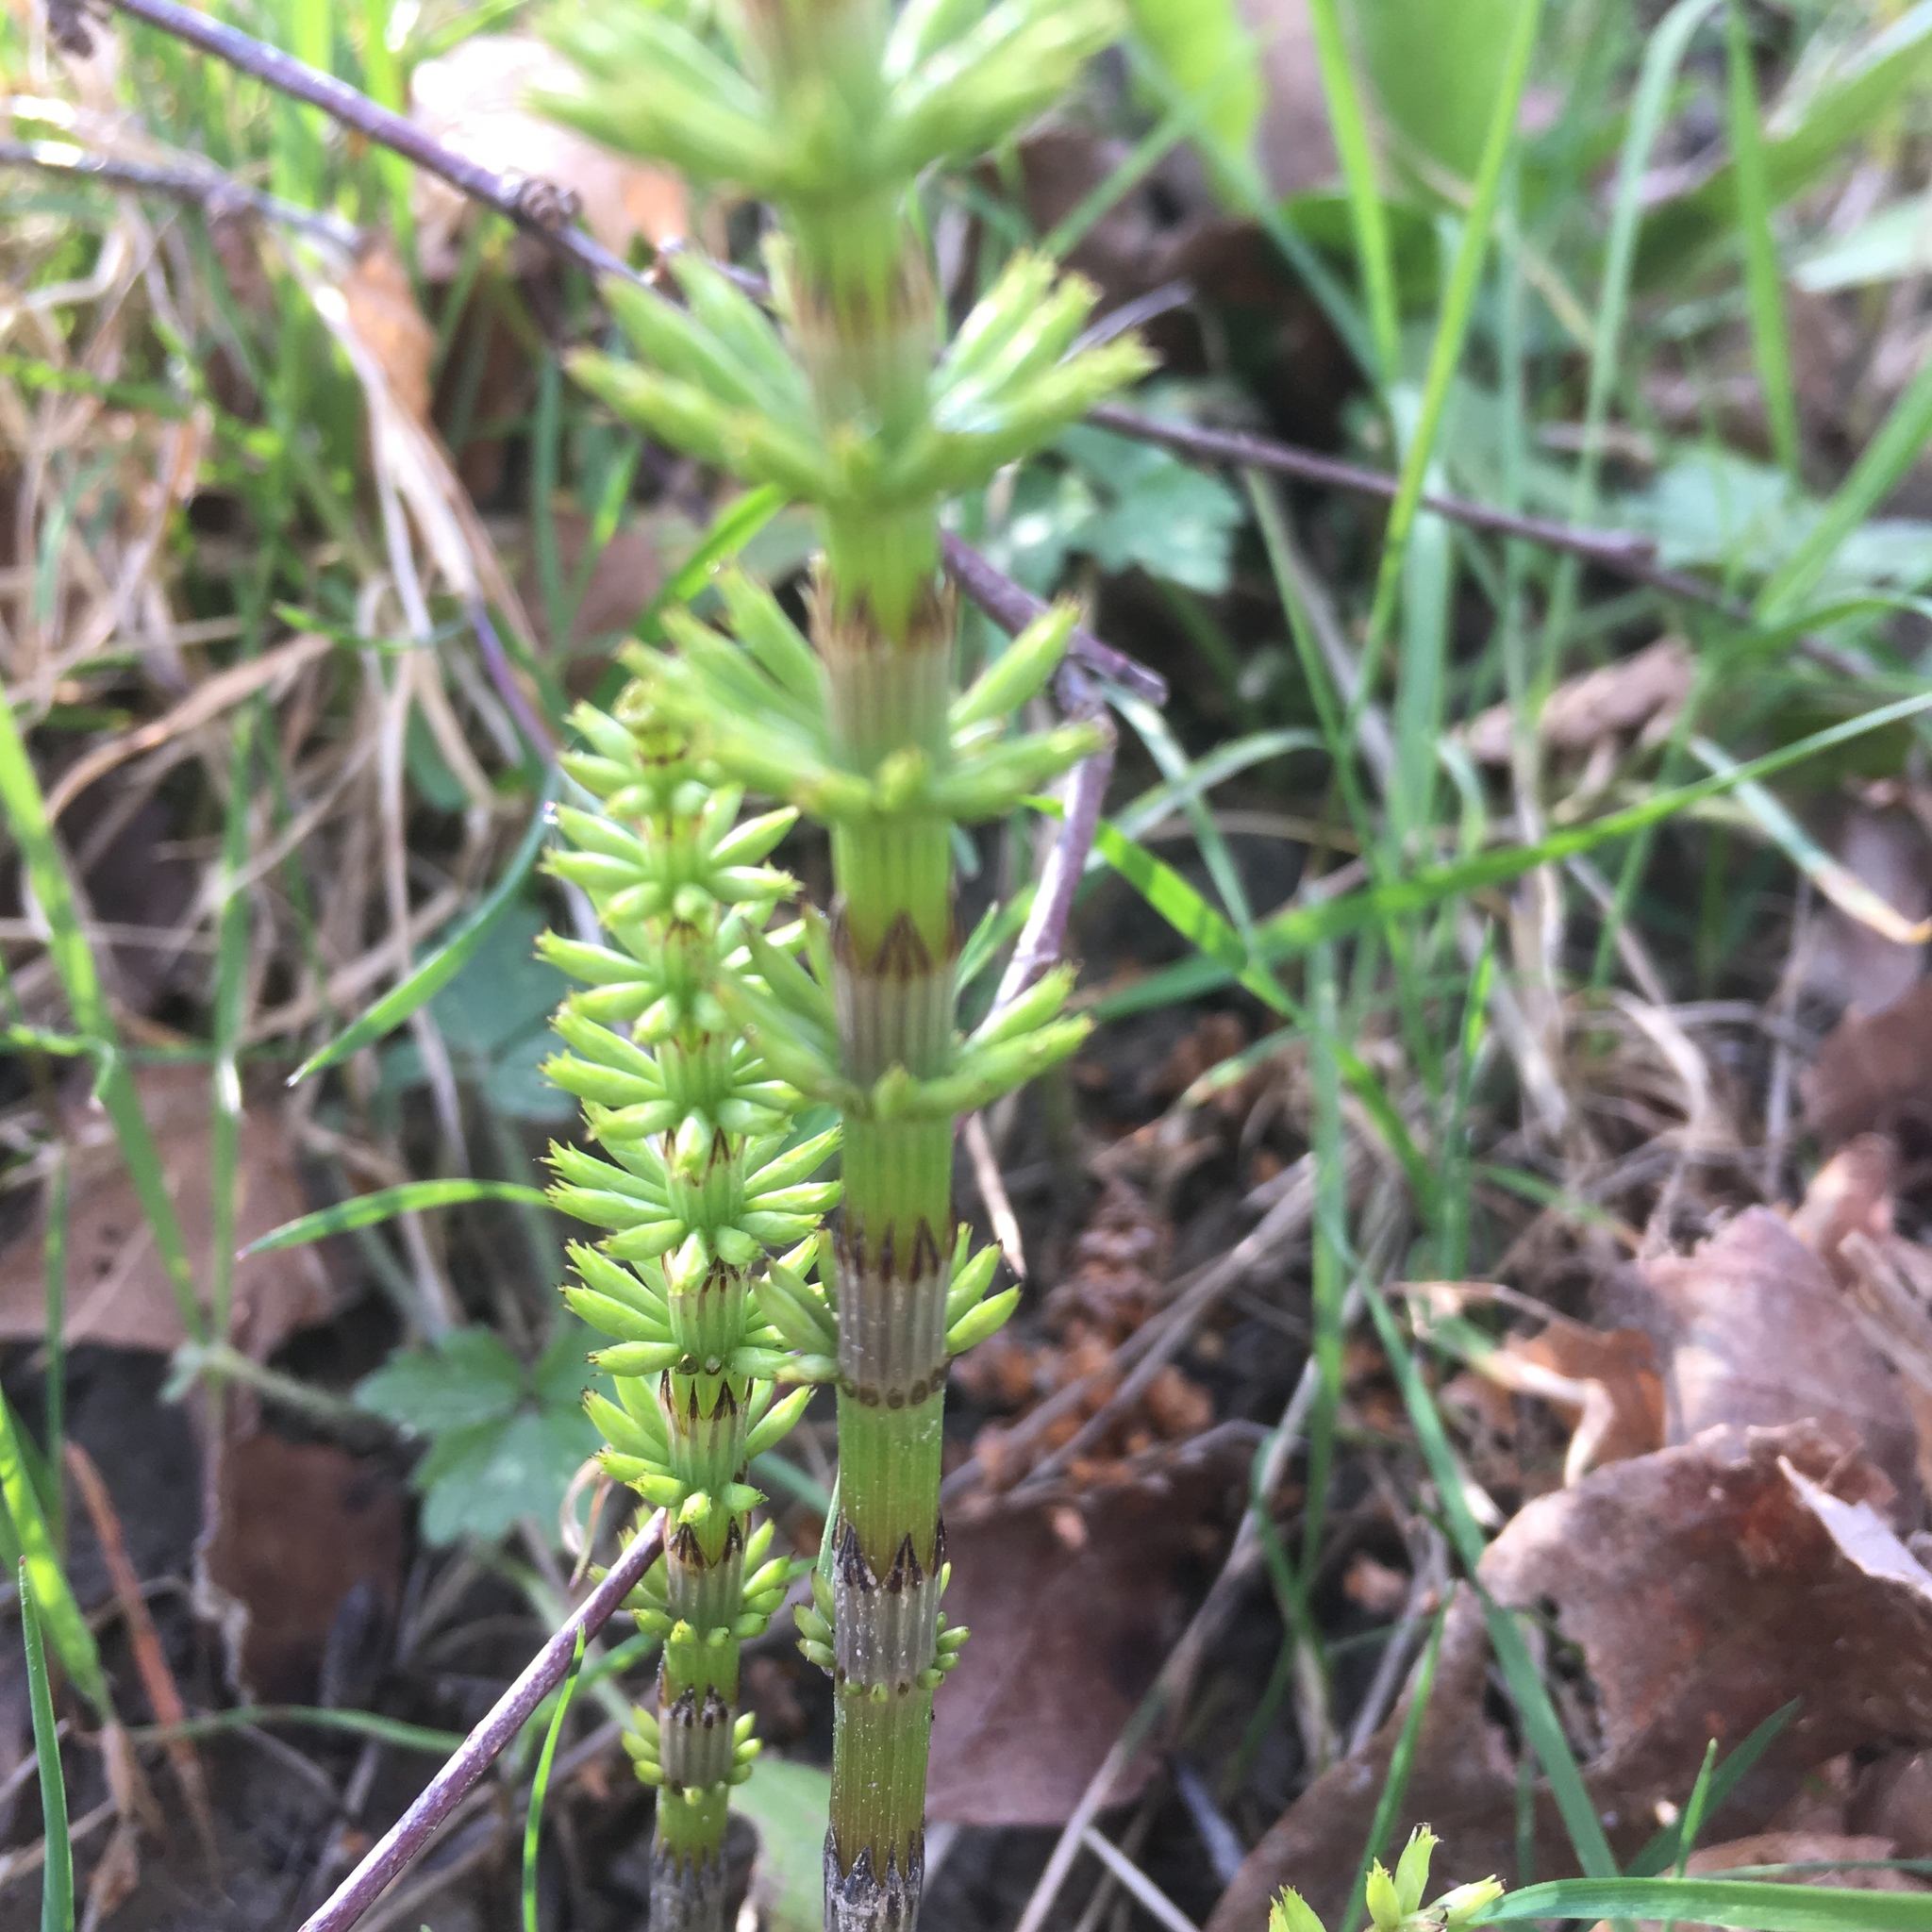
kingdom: Plantae
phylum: Tracheophyta
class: Polypodiopsida
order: Equisetales
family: Equisetaceae
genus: Equisetum
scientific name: Equisetum arvense
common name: Field horsetail
